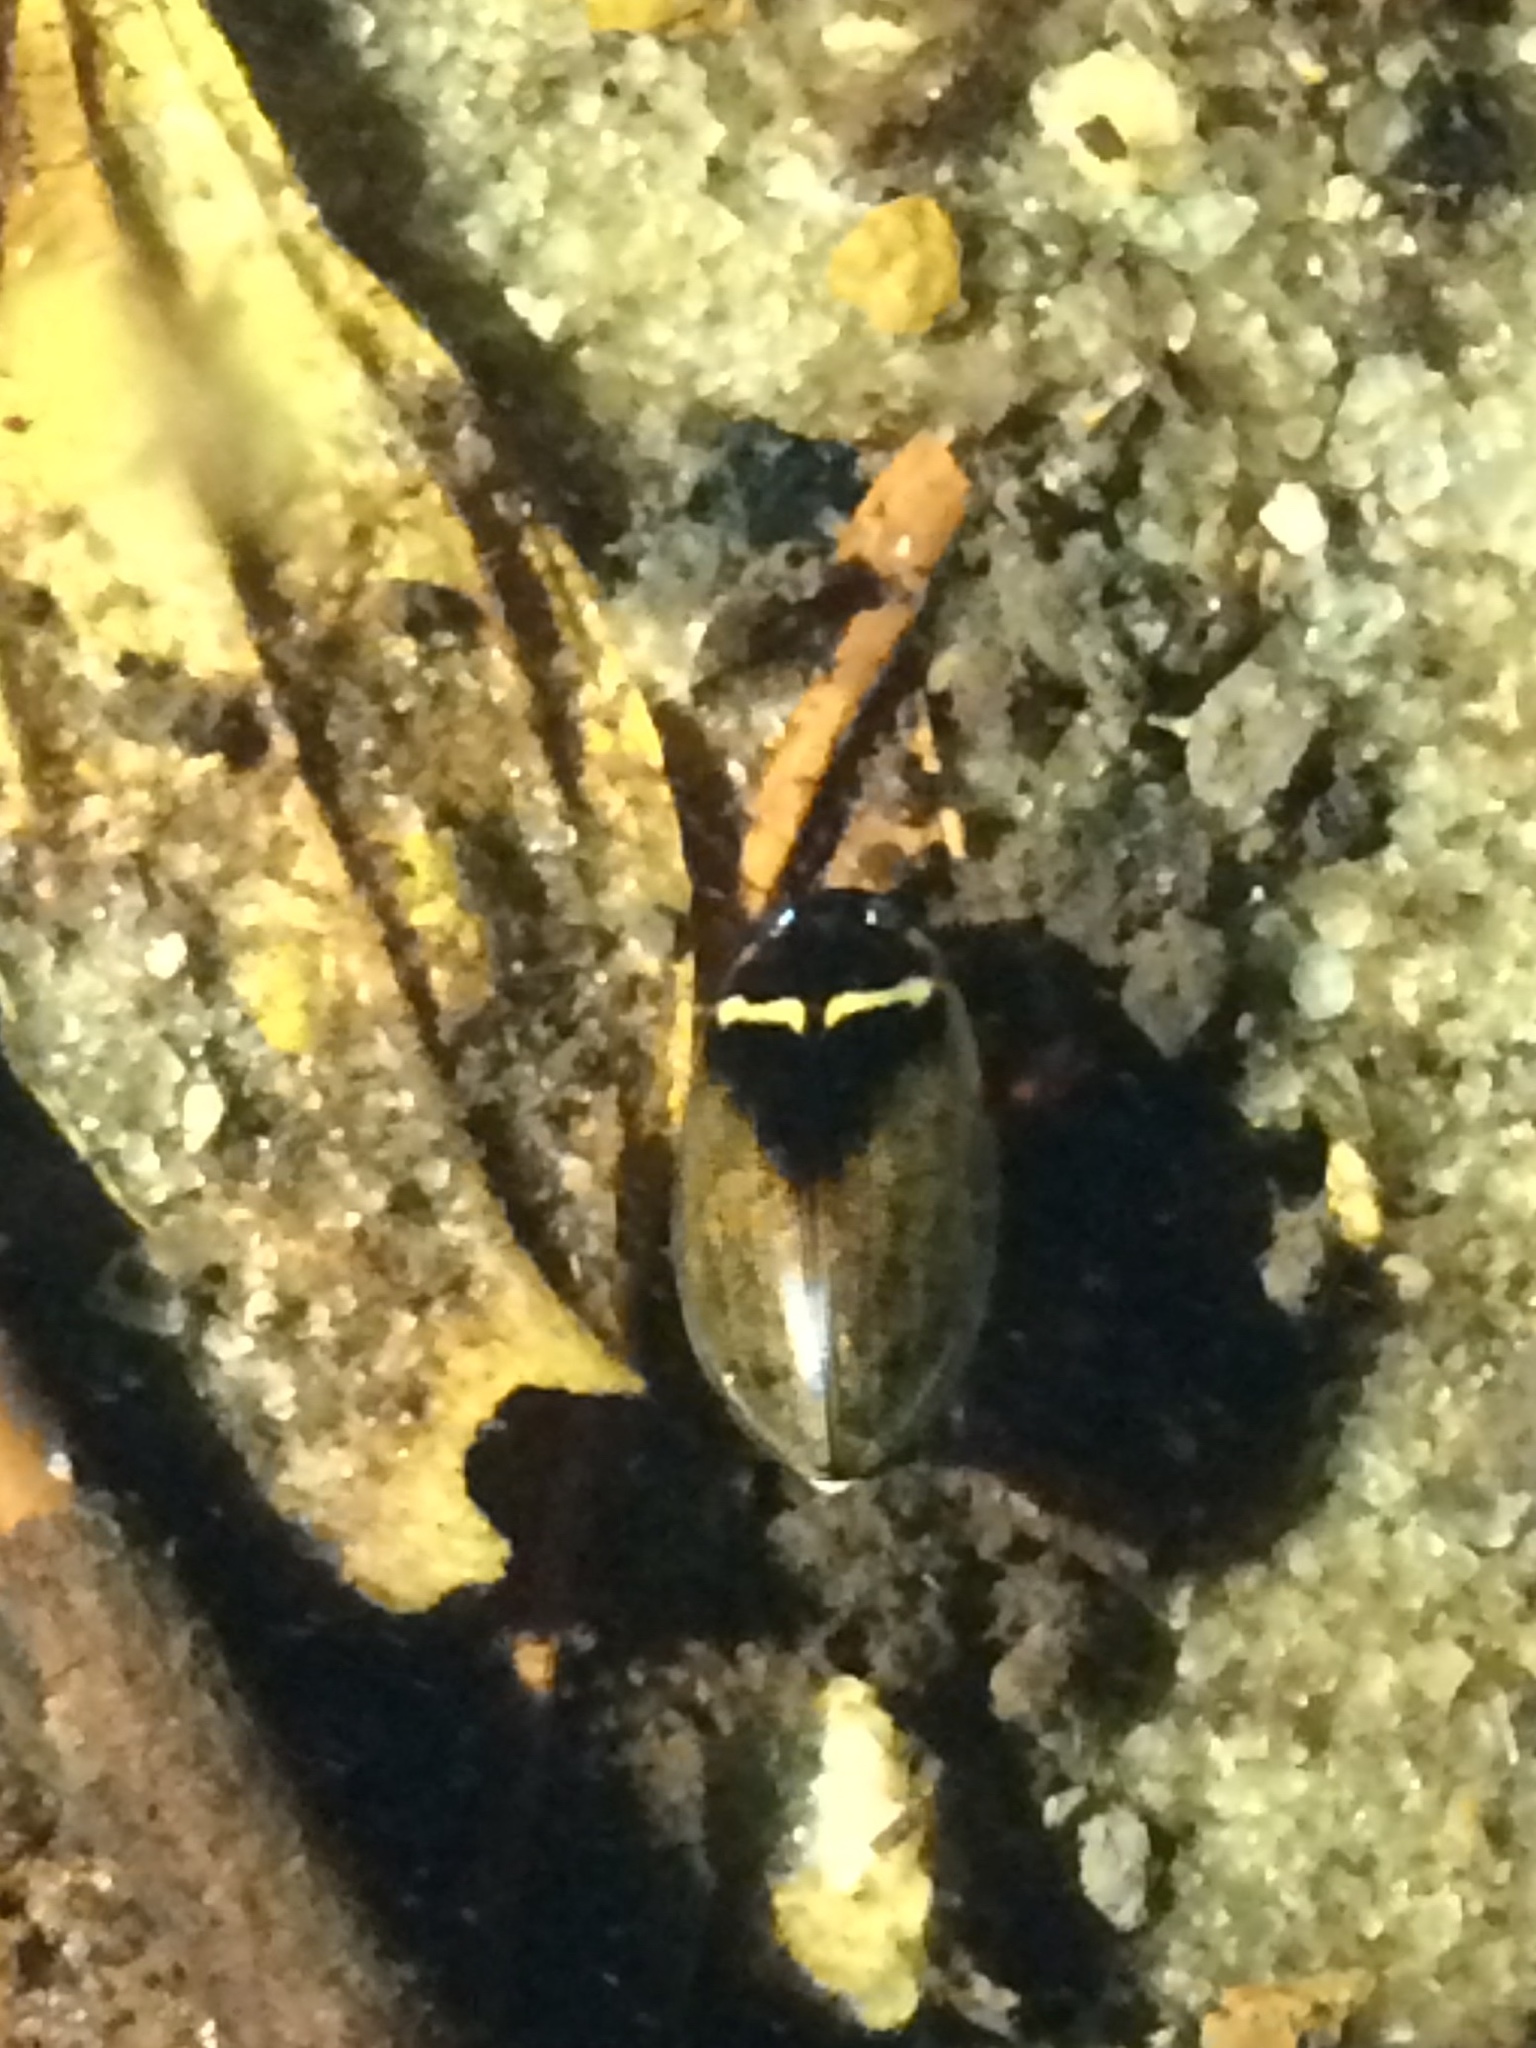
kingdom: Animalia
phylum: Arthropoda
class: Insecta
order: Coleoptera
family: Dytiscidae
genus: Meridiorhantus
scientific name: Meridiorhantus calidus
